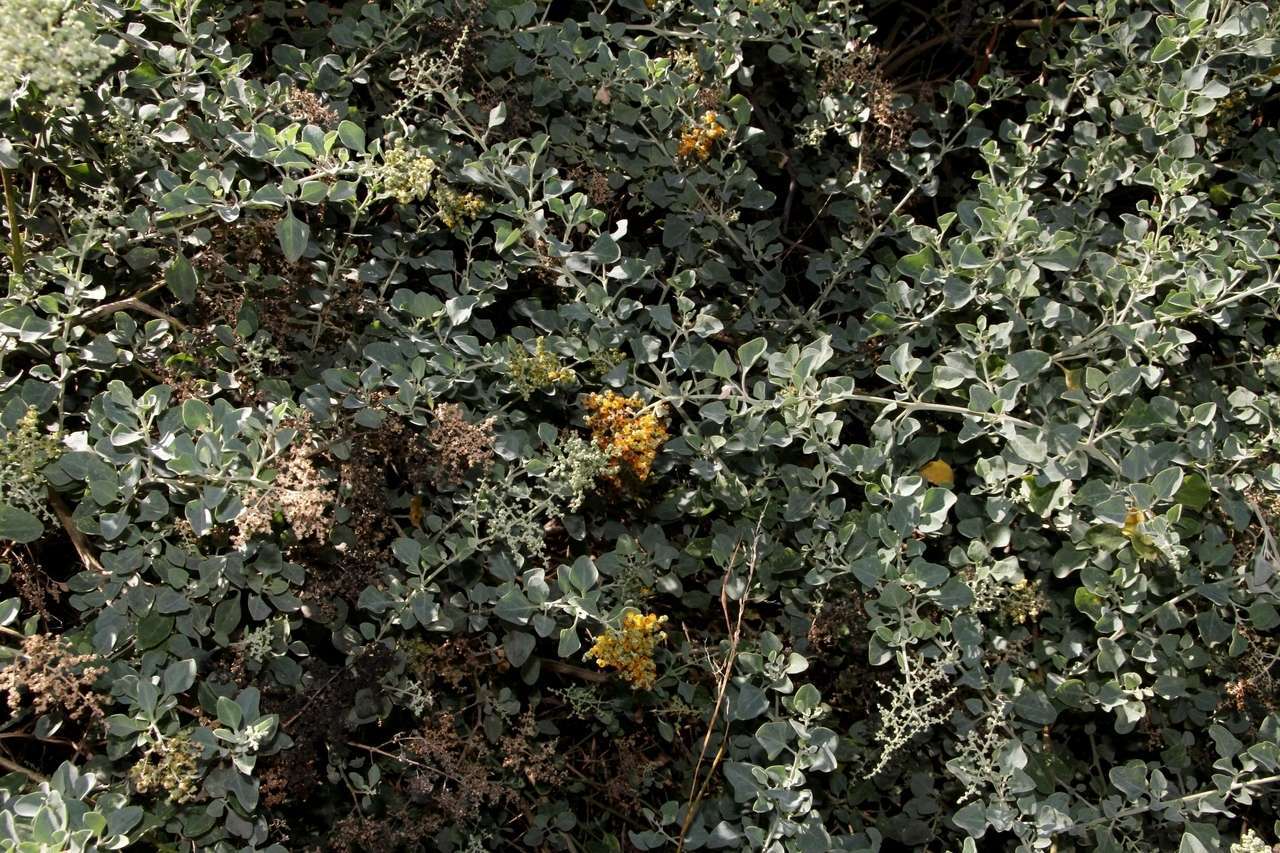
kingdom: Plantae
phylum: Tracheophyta
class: Magnoliopsida
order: Caryophyllales
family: Amaranthaceae
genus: Chenopodium
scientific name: Chenopodium parabolicum
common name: Old-man-saltbush
